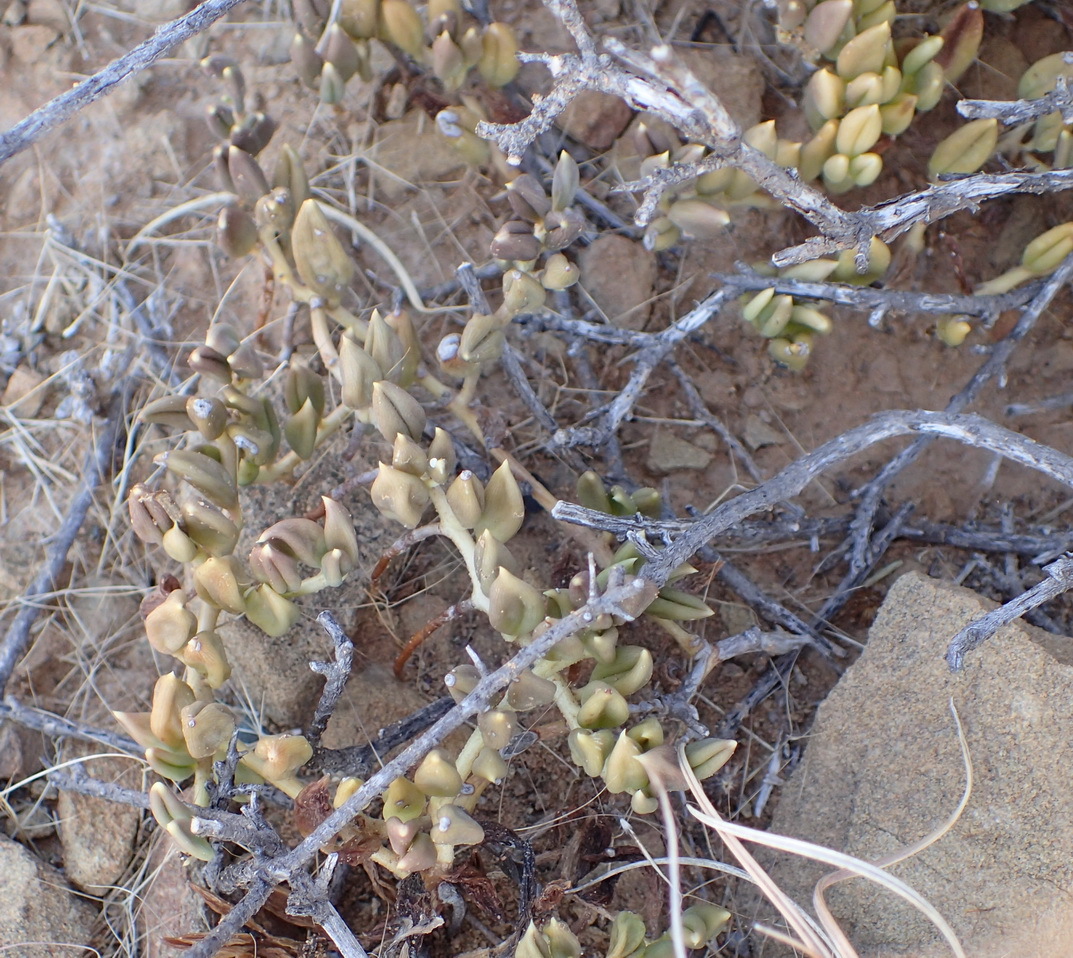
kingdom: Plantae
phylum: Tracheophyta
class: Magnoliopsida
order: Asterales
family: Asteraceae
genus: Curio
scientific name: Curio radicans
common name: Creeping-berry
